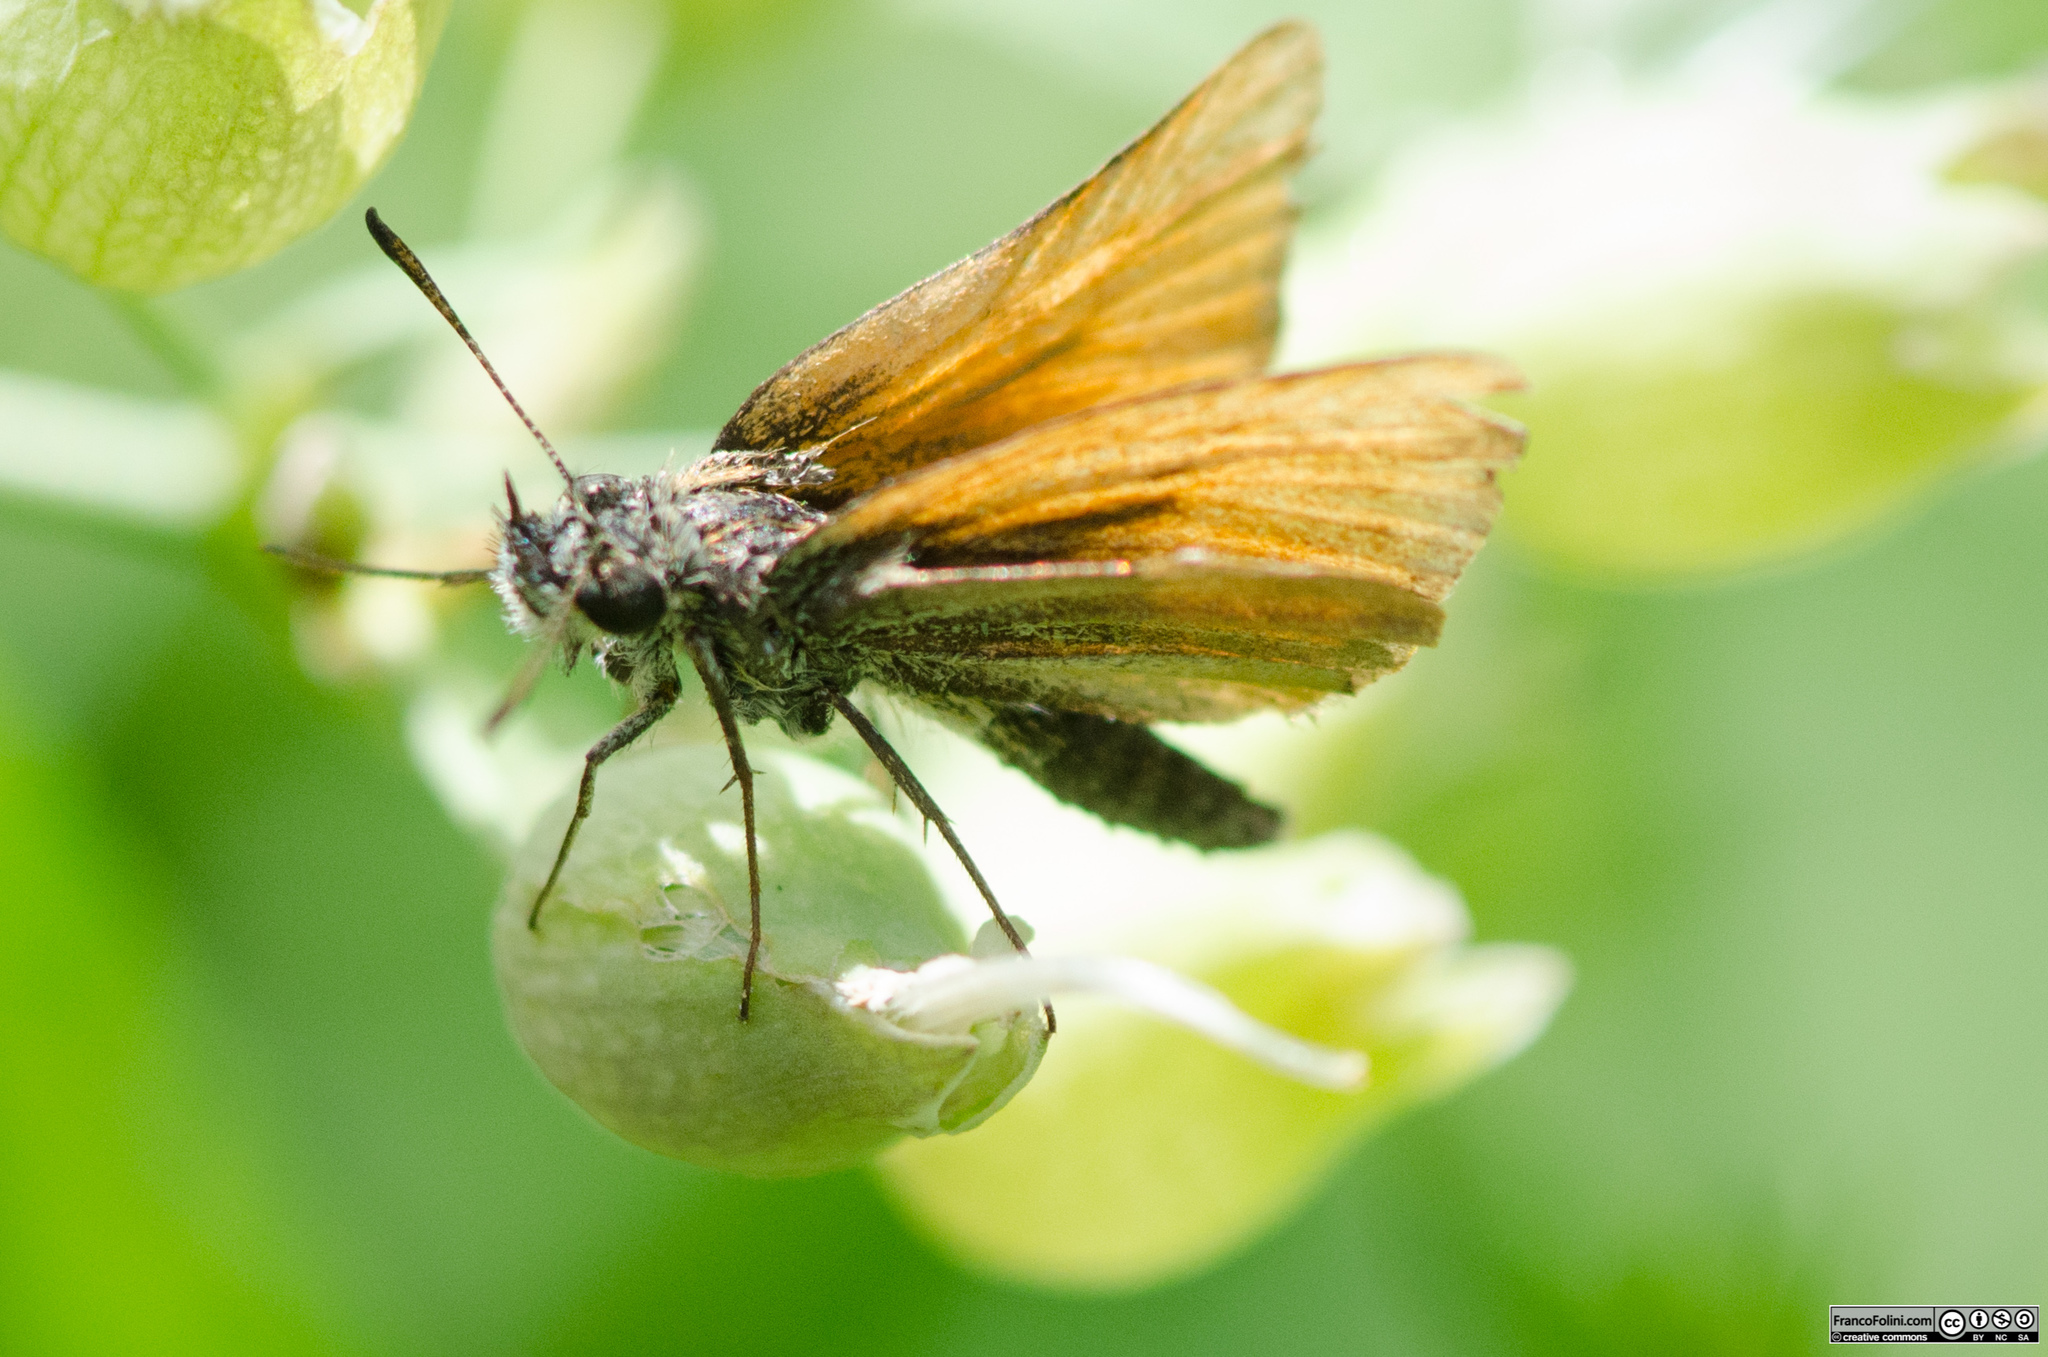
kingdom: Animalia
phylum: Arthropoda
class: Insecta
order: Lepidoptera
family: Hesperiidae
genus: Thymelicus
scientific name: Thymelicus lineola
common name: Essex skipper
